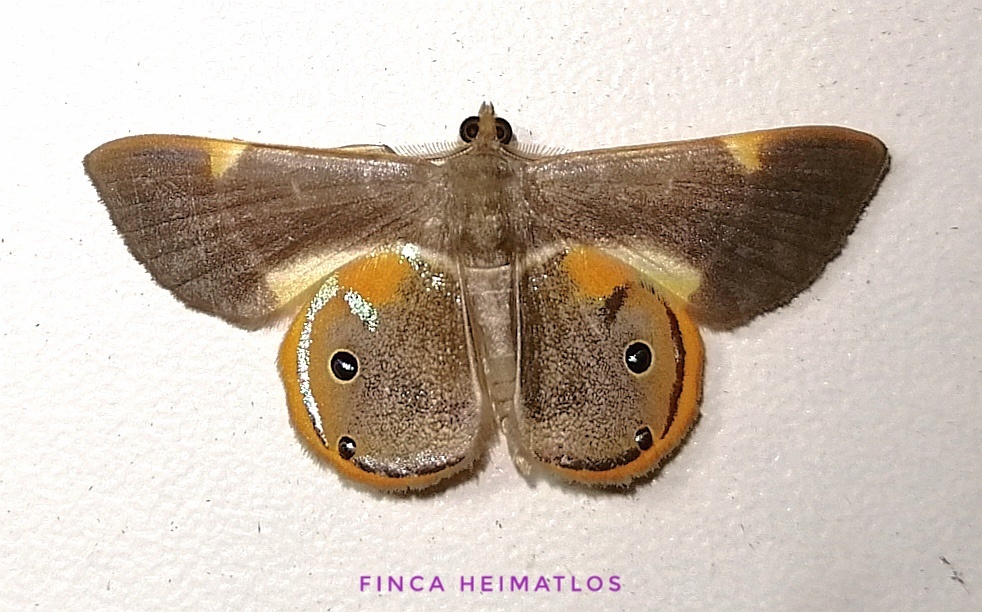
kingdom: Animalia
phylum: Arthropoda
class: Insecta
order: Lepidoptera
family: Geometridae
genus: Opisthoxia
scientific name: Opisthoxia haemon
